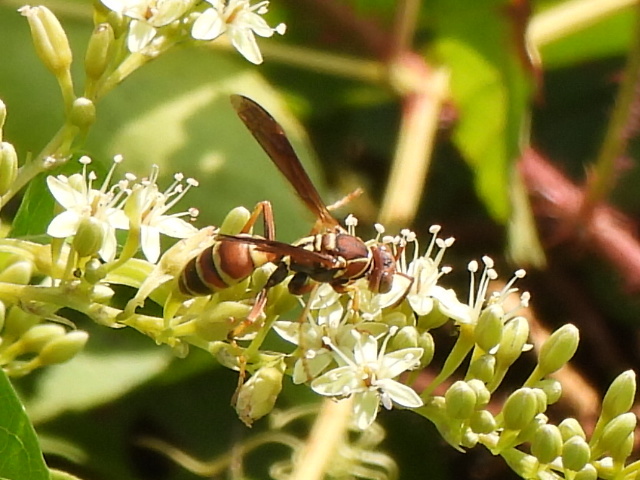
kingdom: Animalia
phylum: Arthropoda
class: Insecta
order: Hymenoptera
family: Eumenidae
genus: Polistes
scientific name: Polistes dorsalis
